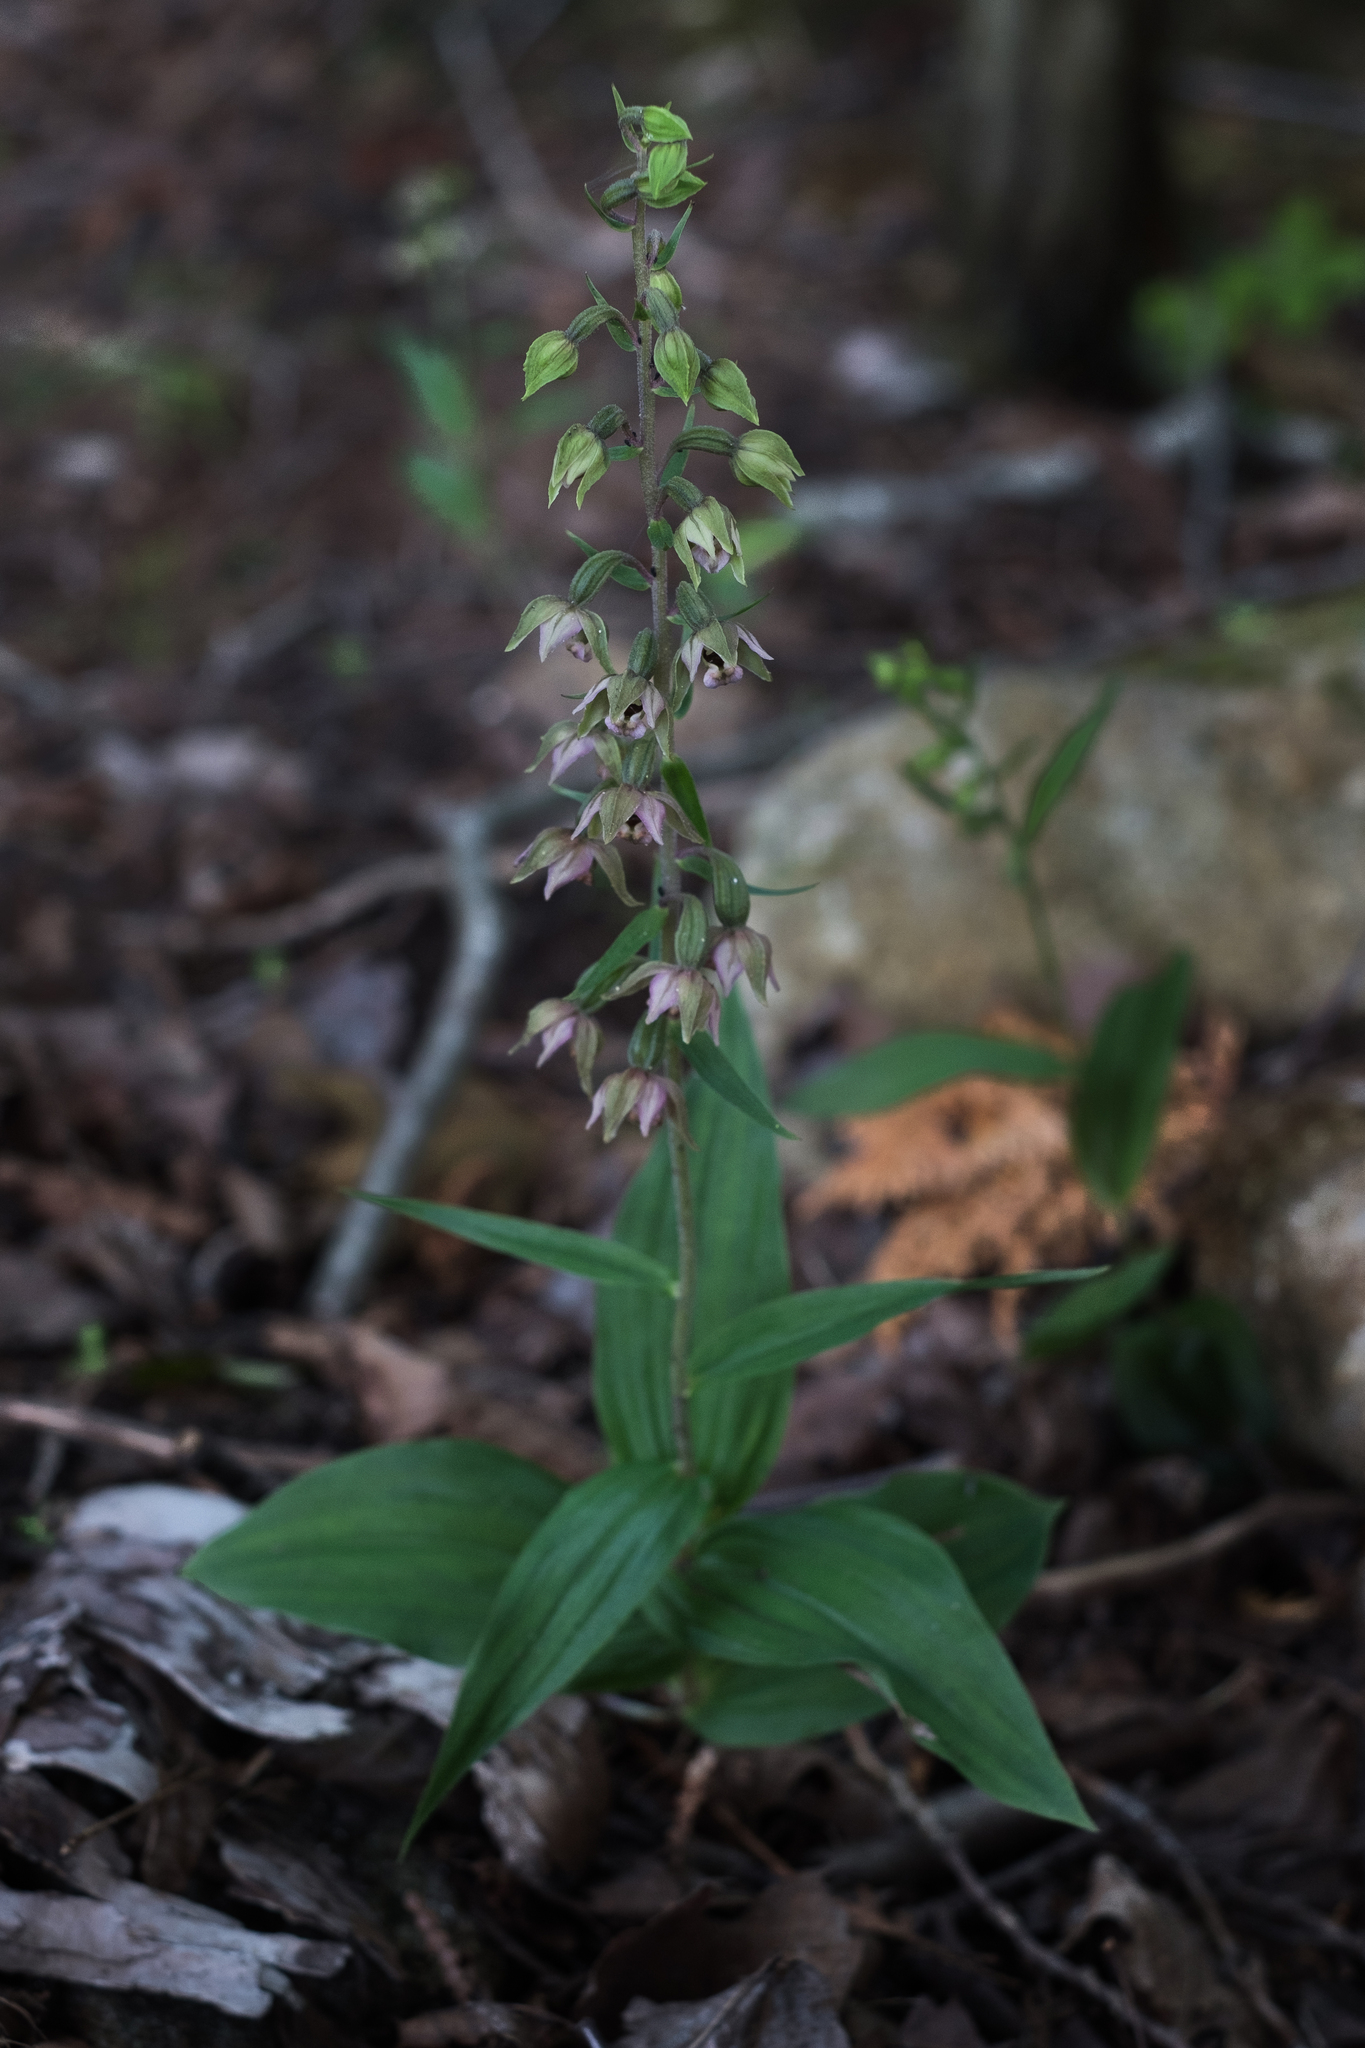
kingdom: Plantae
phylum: Tracheophyta
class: Liliopsida
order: Asparagales
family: Orchidaceae
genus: Epipactis
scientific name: Epipactis helleborine
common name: Broad-leaved helleborine
